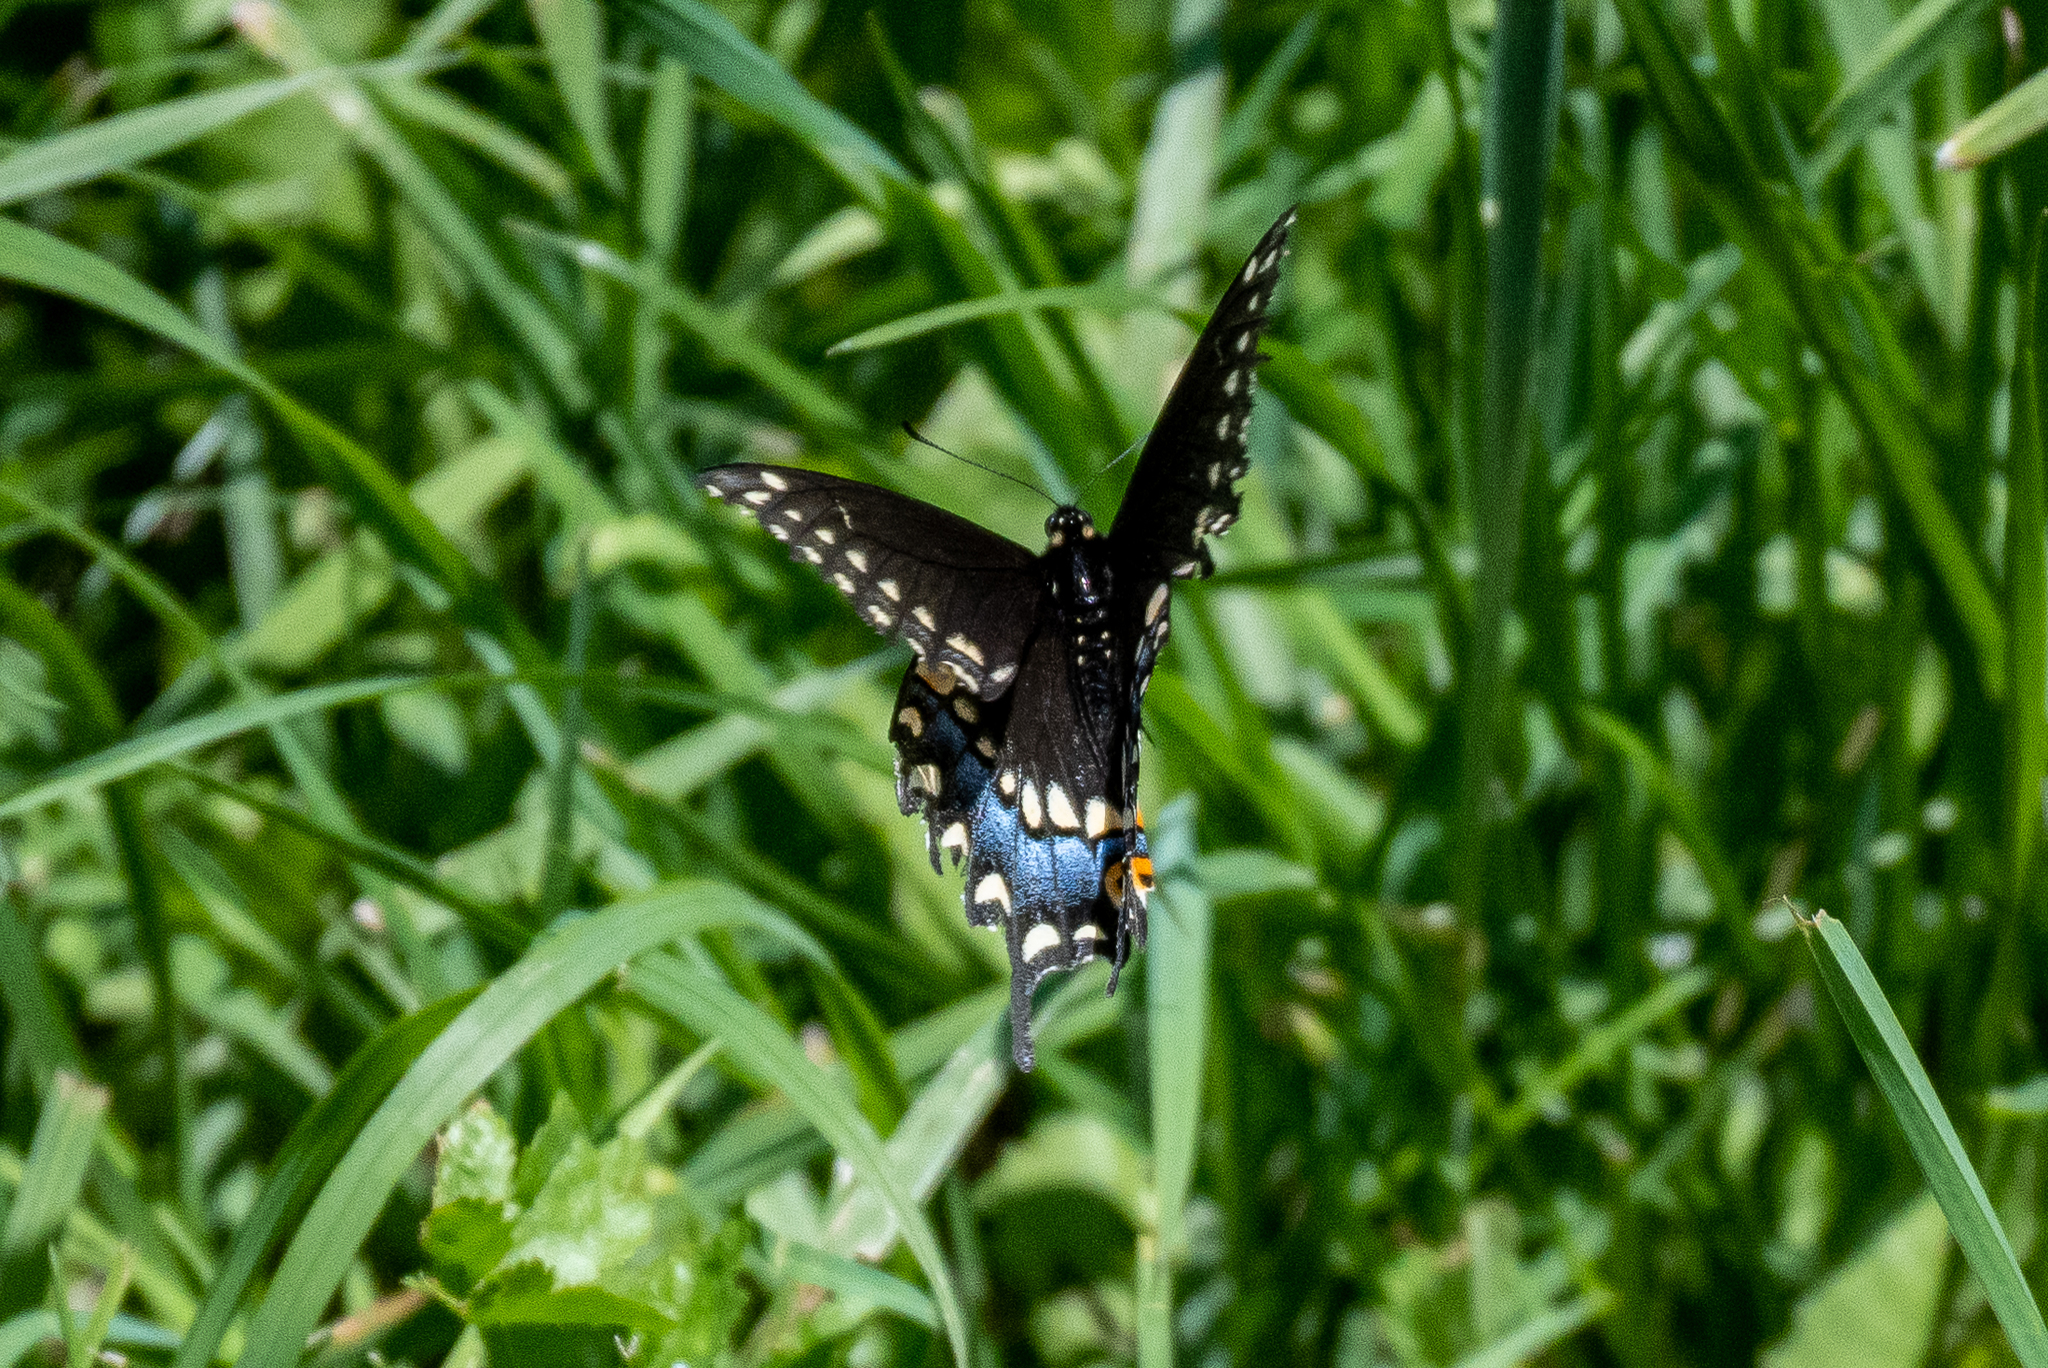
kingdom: Animalia
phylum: Arthropoda
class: Insecta
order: Lepidoptera
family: Papilionidae
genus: Papilio
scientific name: Papilio polyxenes
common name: Black swallowtail
